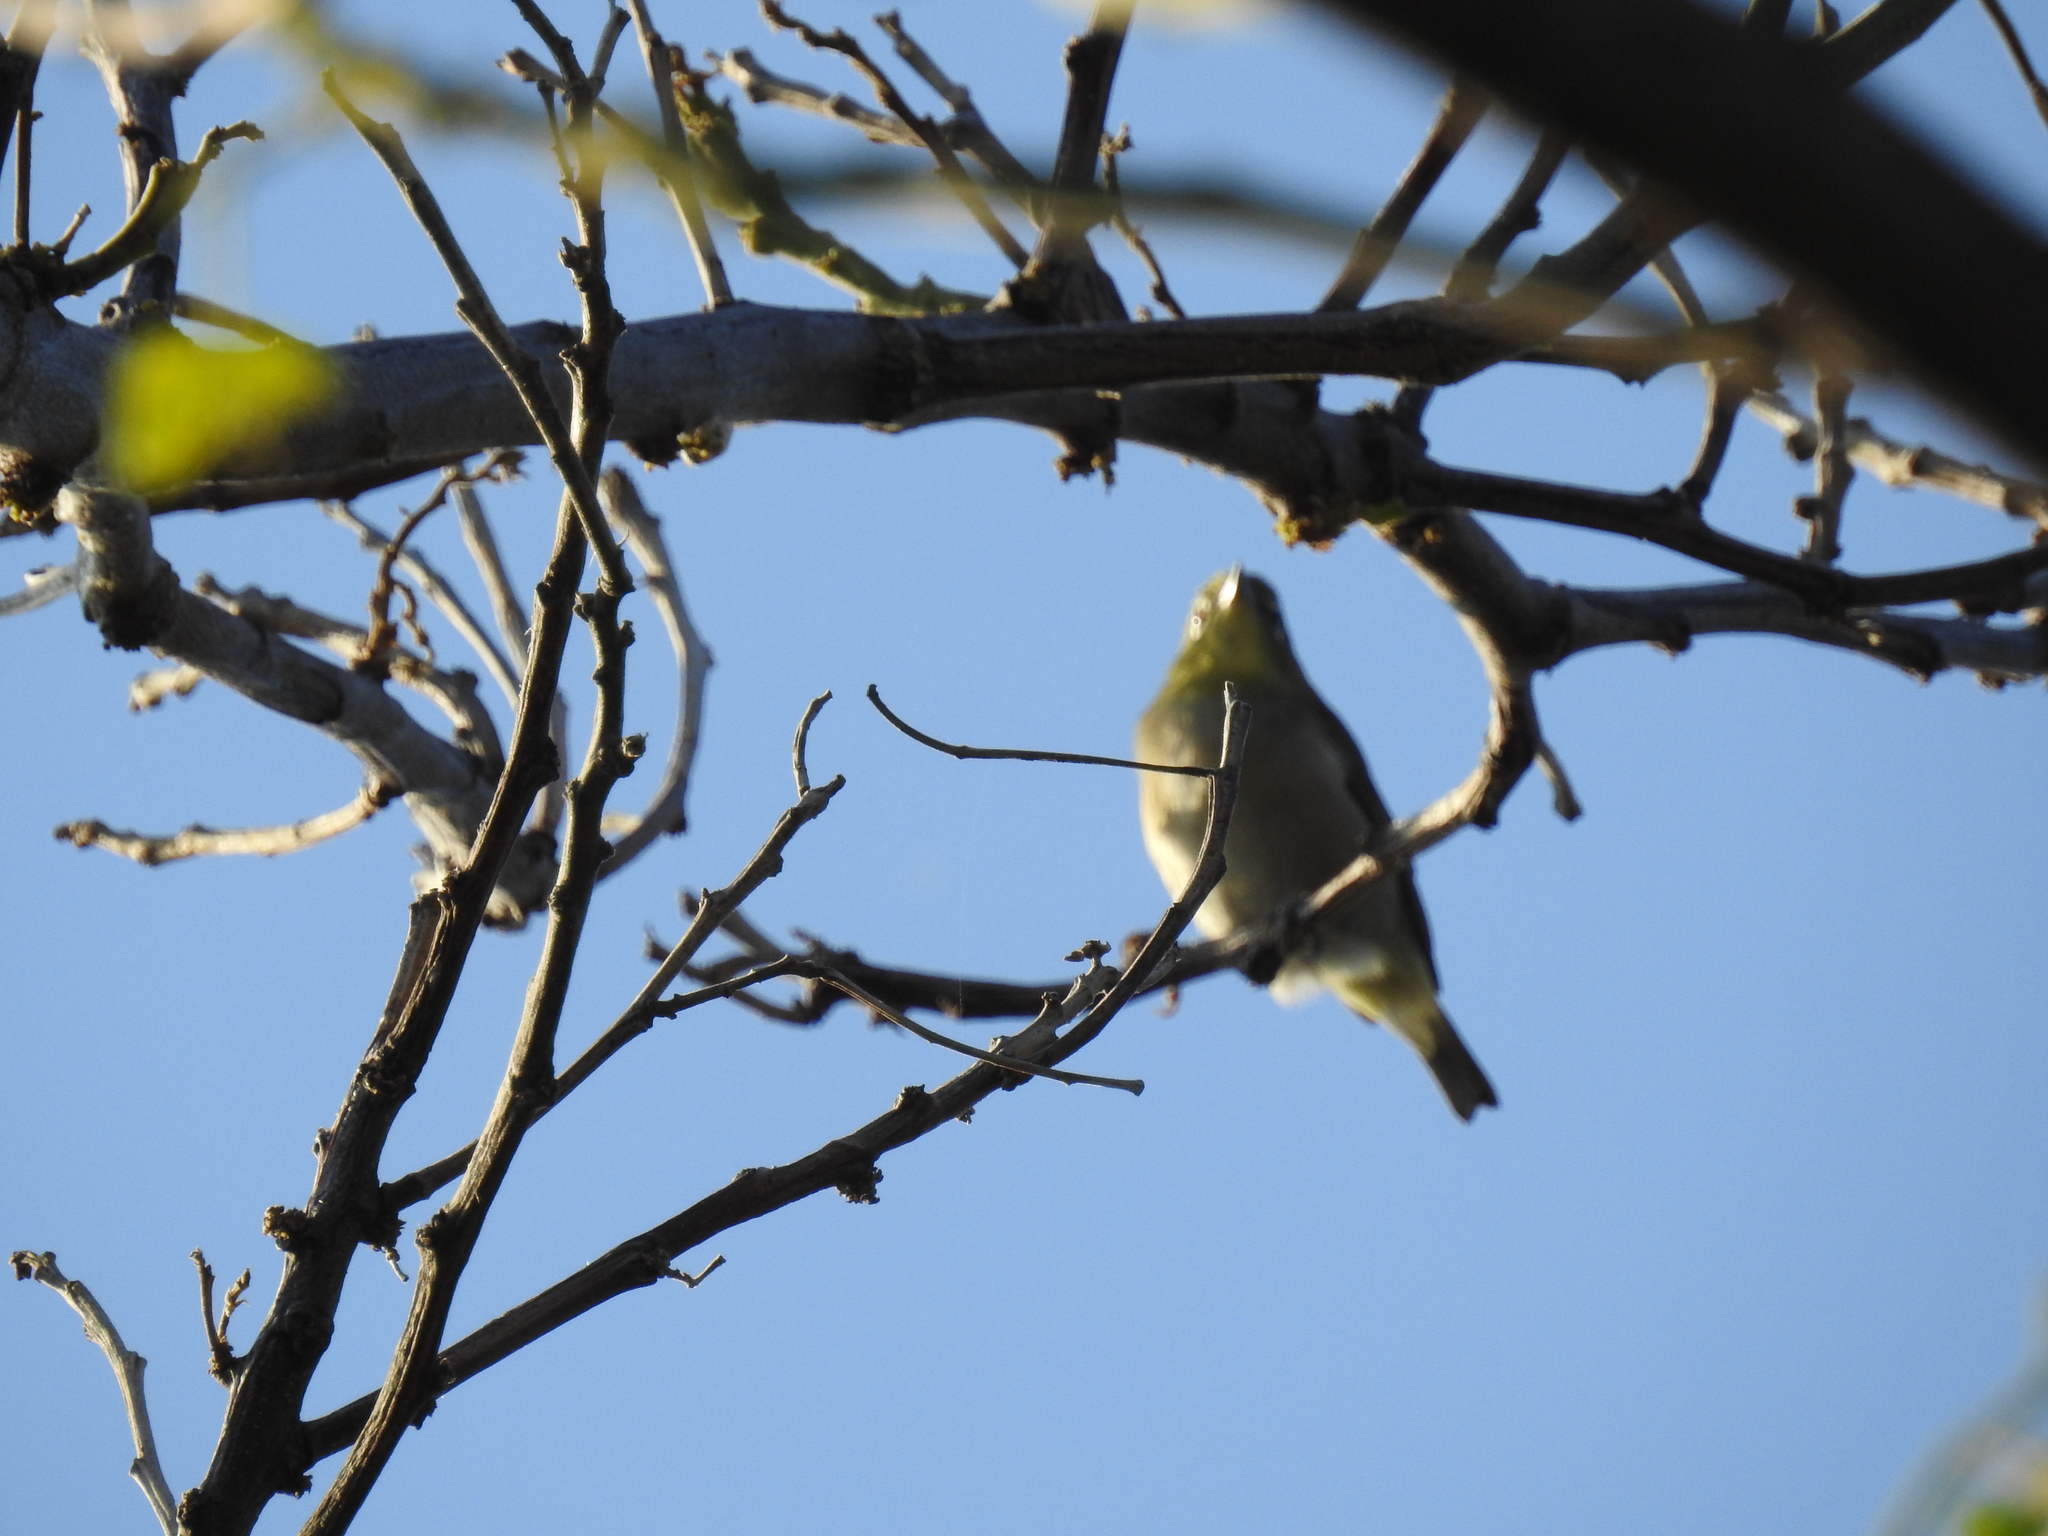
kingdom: Animalia
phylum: Chordata
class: Aves
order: Passeriformes
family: Zosteropidae
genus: Zosterops
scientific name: Zosterops japonicus
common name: Japanese white-eye
